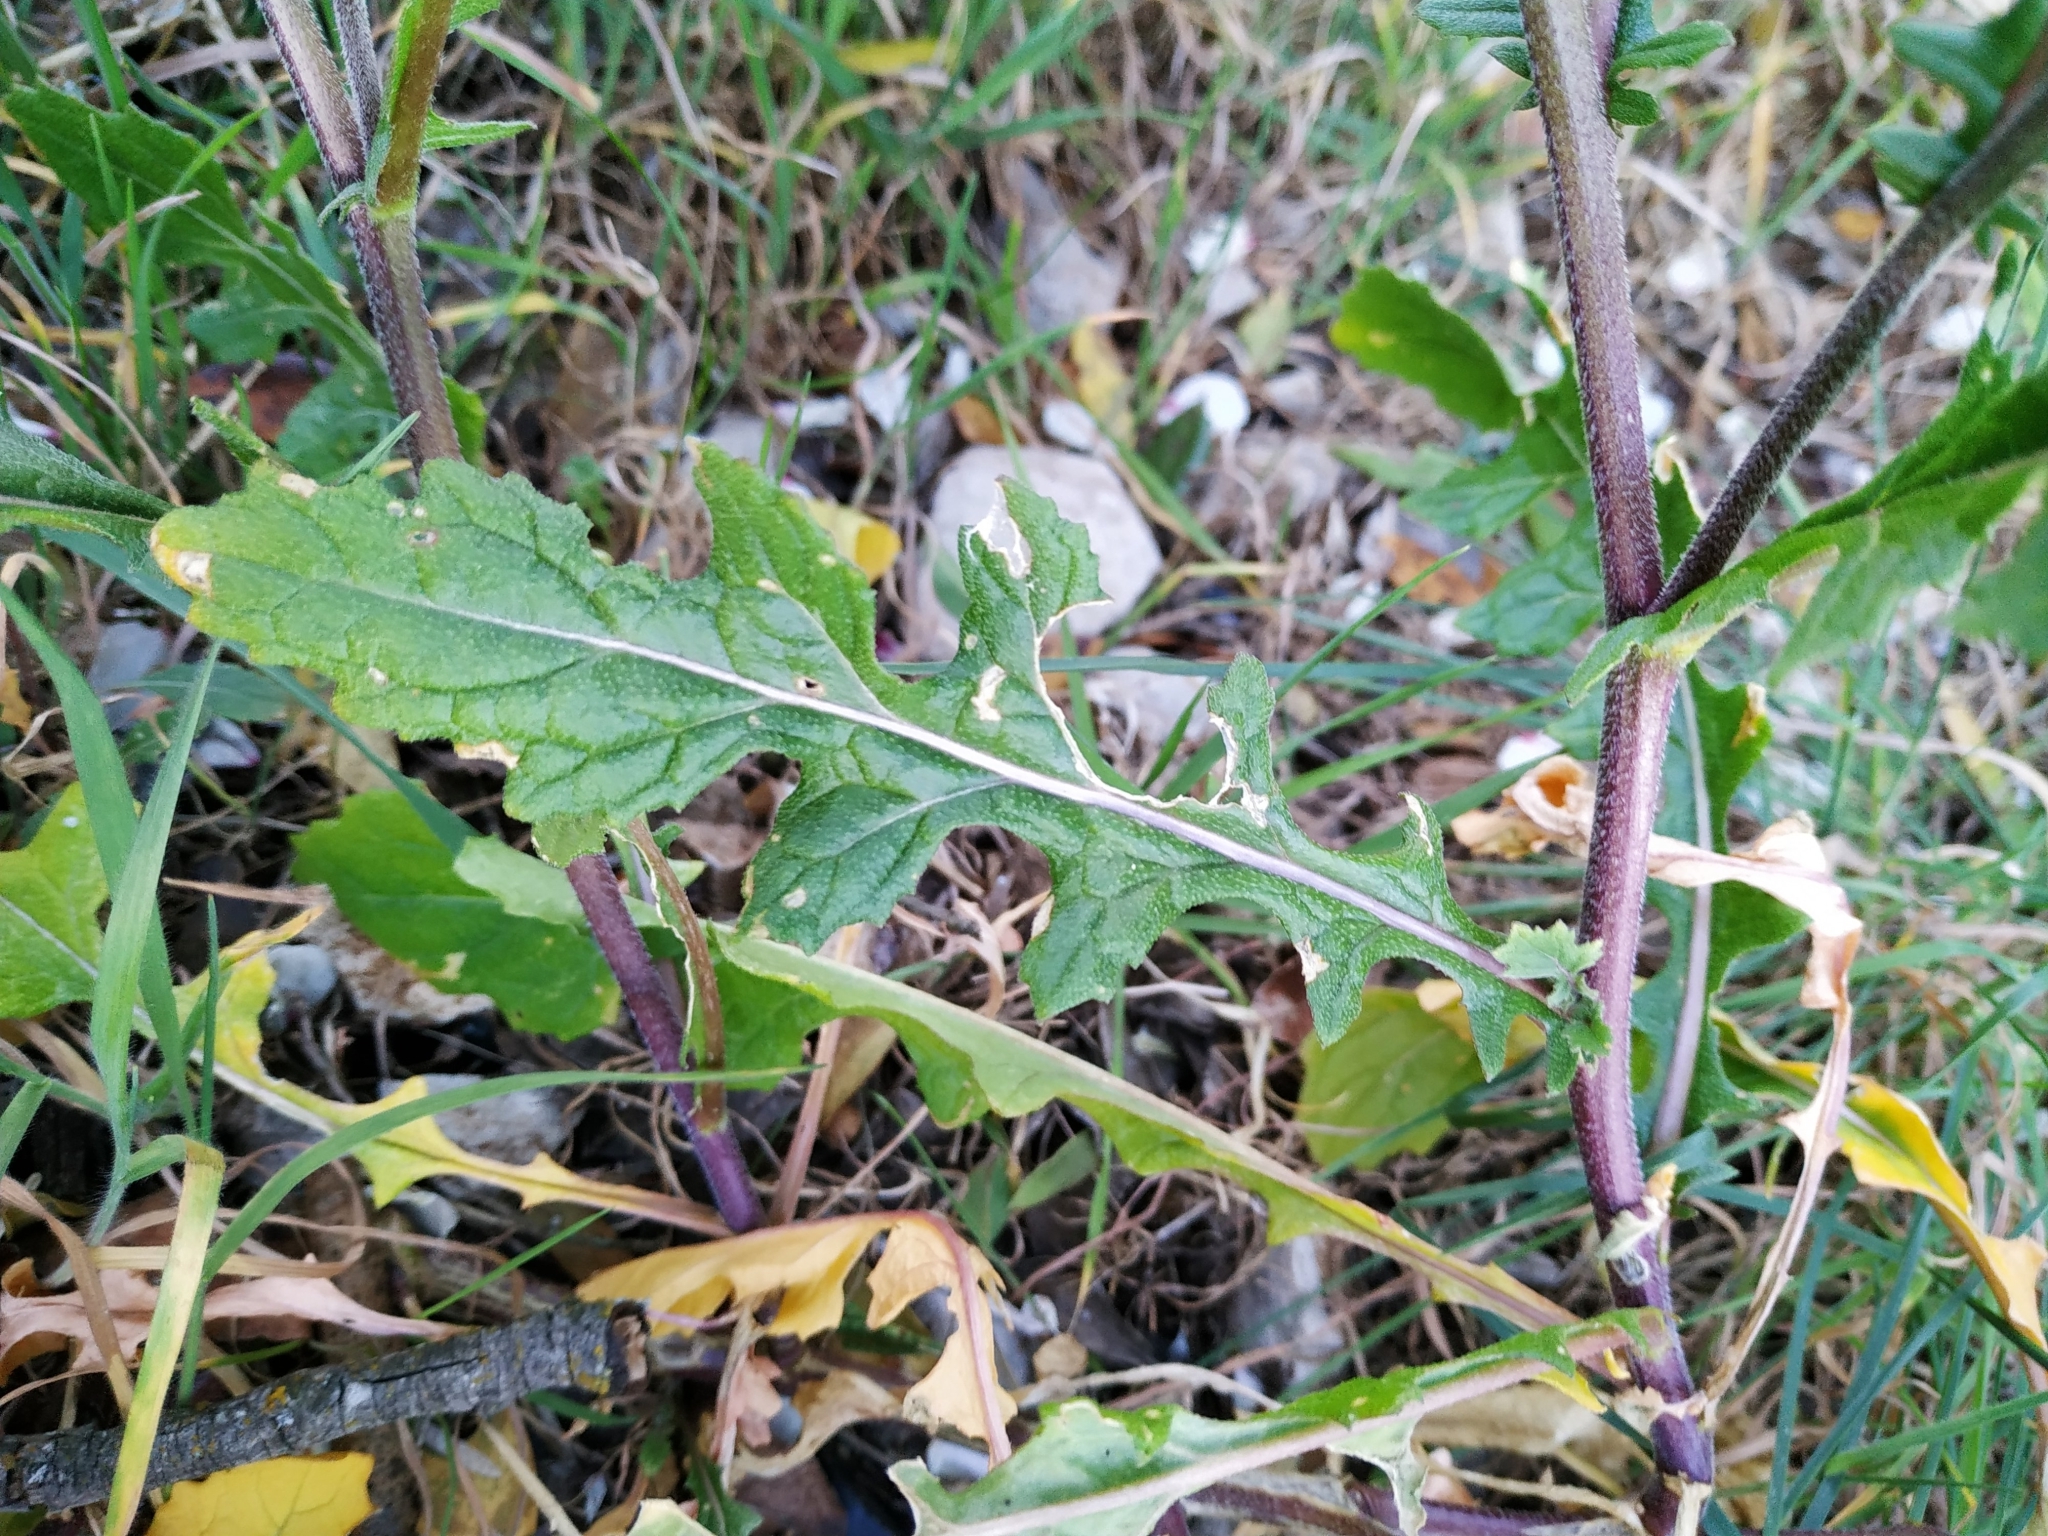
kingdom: Plantae
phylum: Tracheophyta
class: Magnoliopsida
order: Brassicales
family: Brassicaceae
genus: Diplotaxis
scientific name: Diplotaxis erucoides
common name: White rocket
